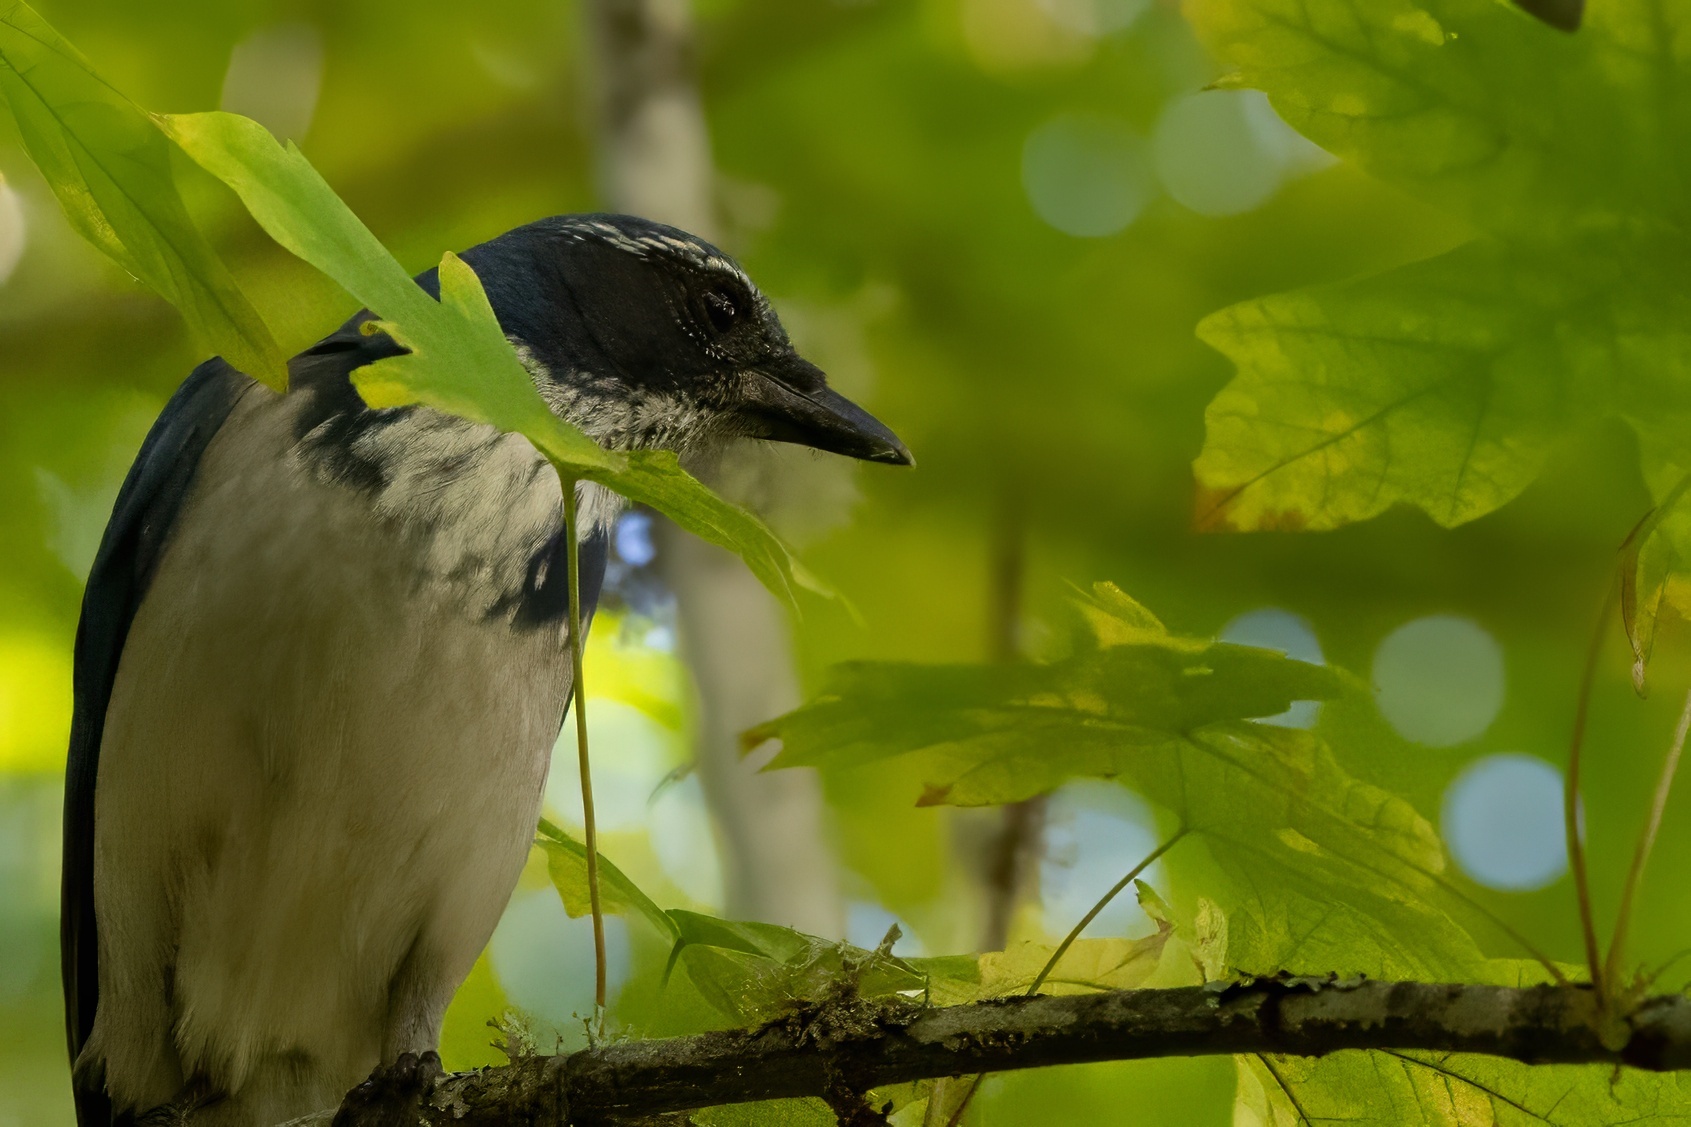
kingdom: Animalia
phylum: Chordata
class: Aves
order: Passeriformes
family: Corvidae
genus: Aphelocoma
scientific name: Aphelocoma californica
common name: California scrub-jay
